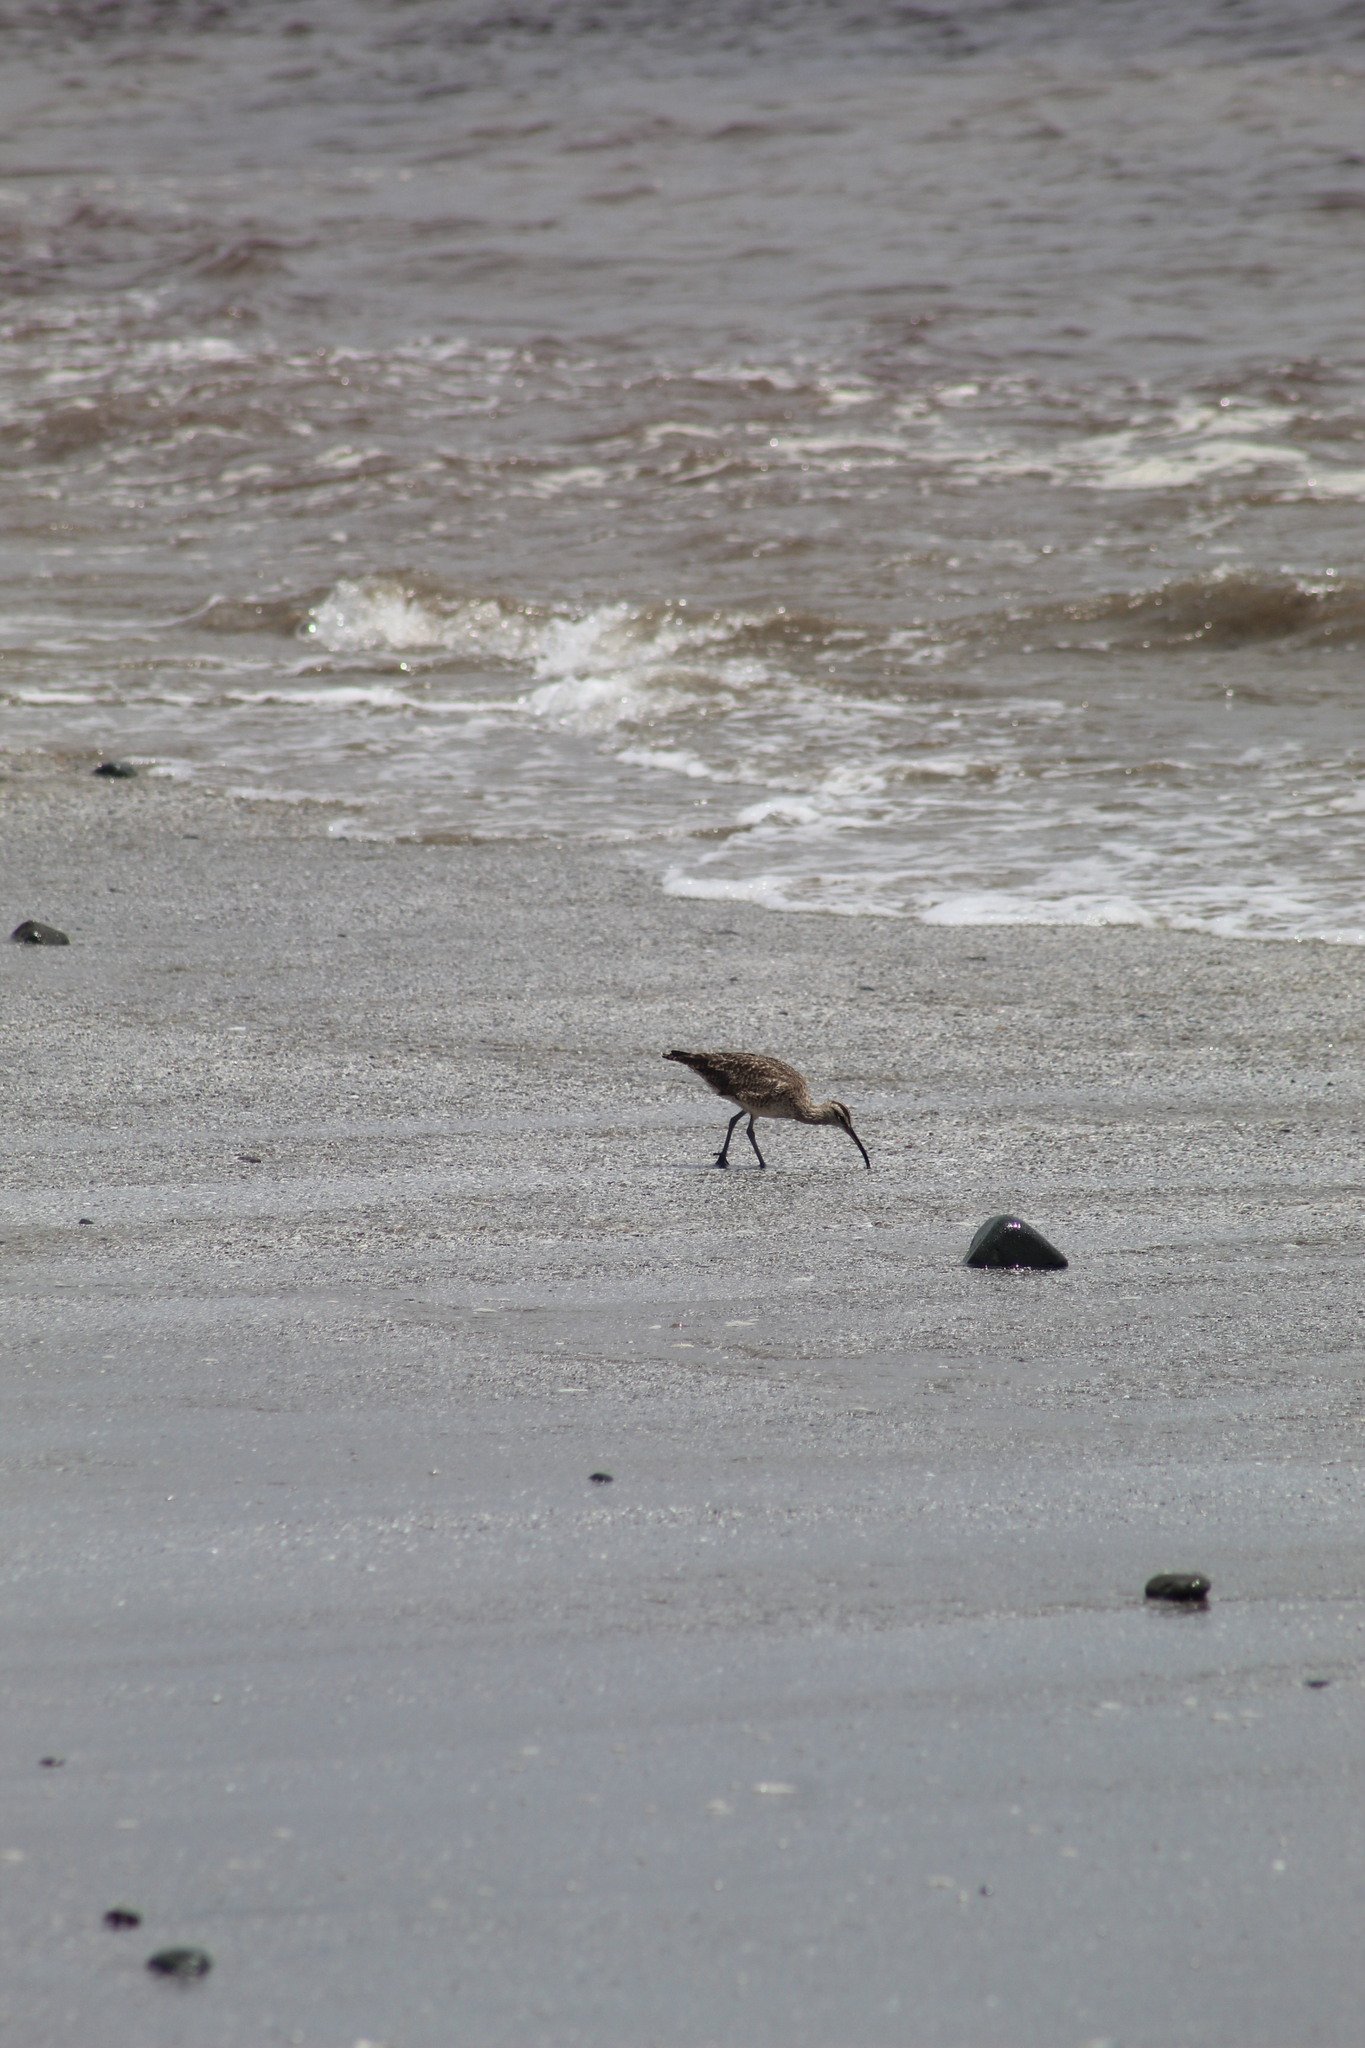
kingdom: Animalia
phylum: Chordata
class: Aves
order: Charadriiformes
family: Scolopacidae
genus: Numenius
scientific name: Numenius phaeopus
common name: Whimbrel
